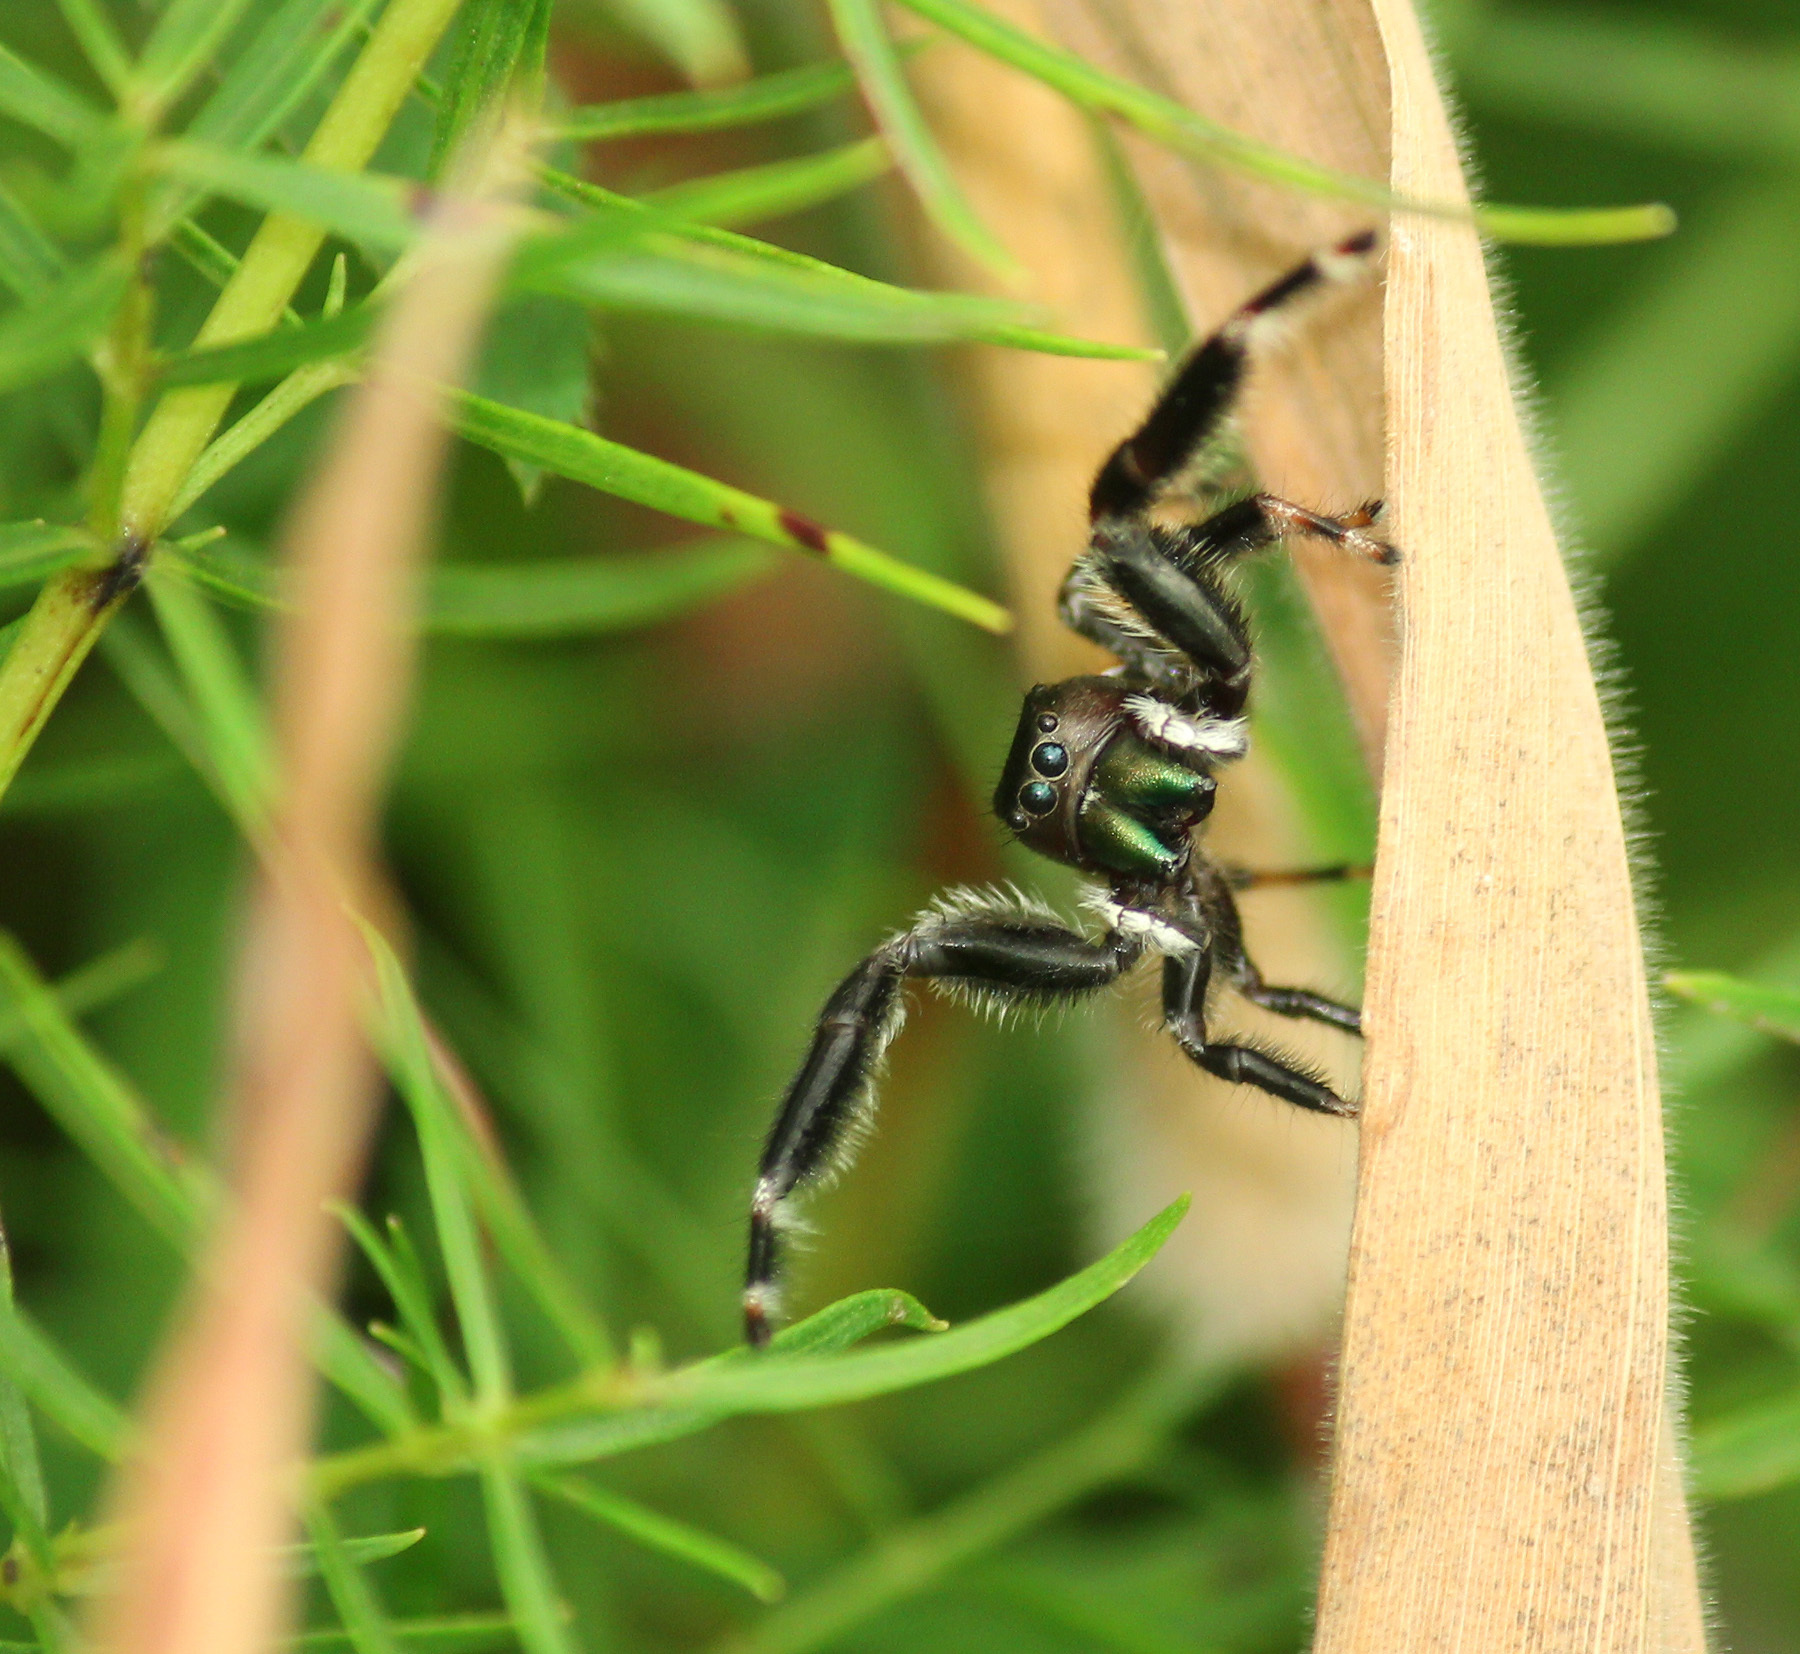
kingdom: Animalia
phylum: Arthropoda
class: Arachnida
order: Araneae
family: Salticidae
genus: Phidippus
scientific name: Phidippus clarus
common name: Brilliant jumping spider
